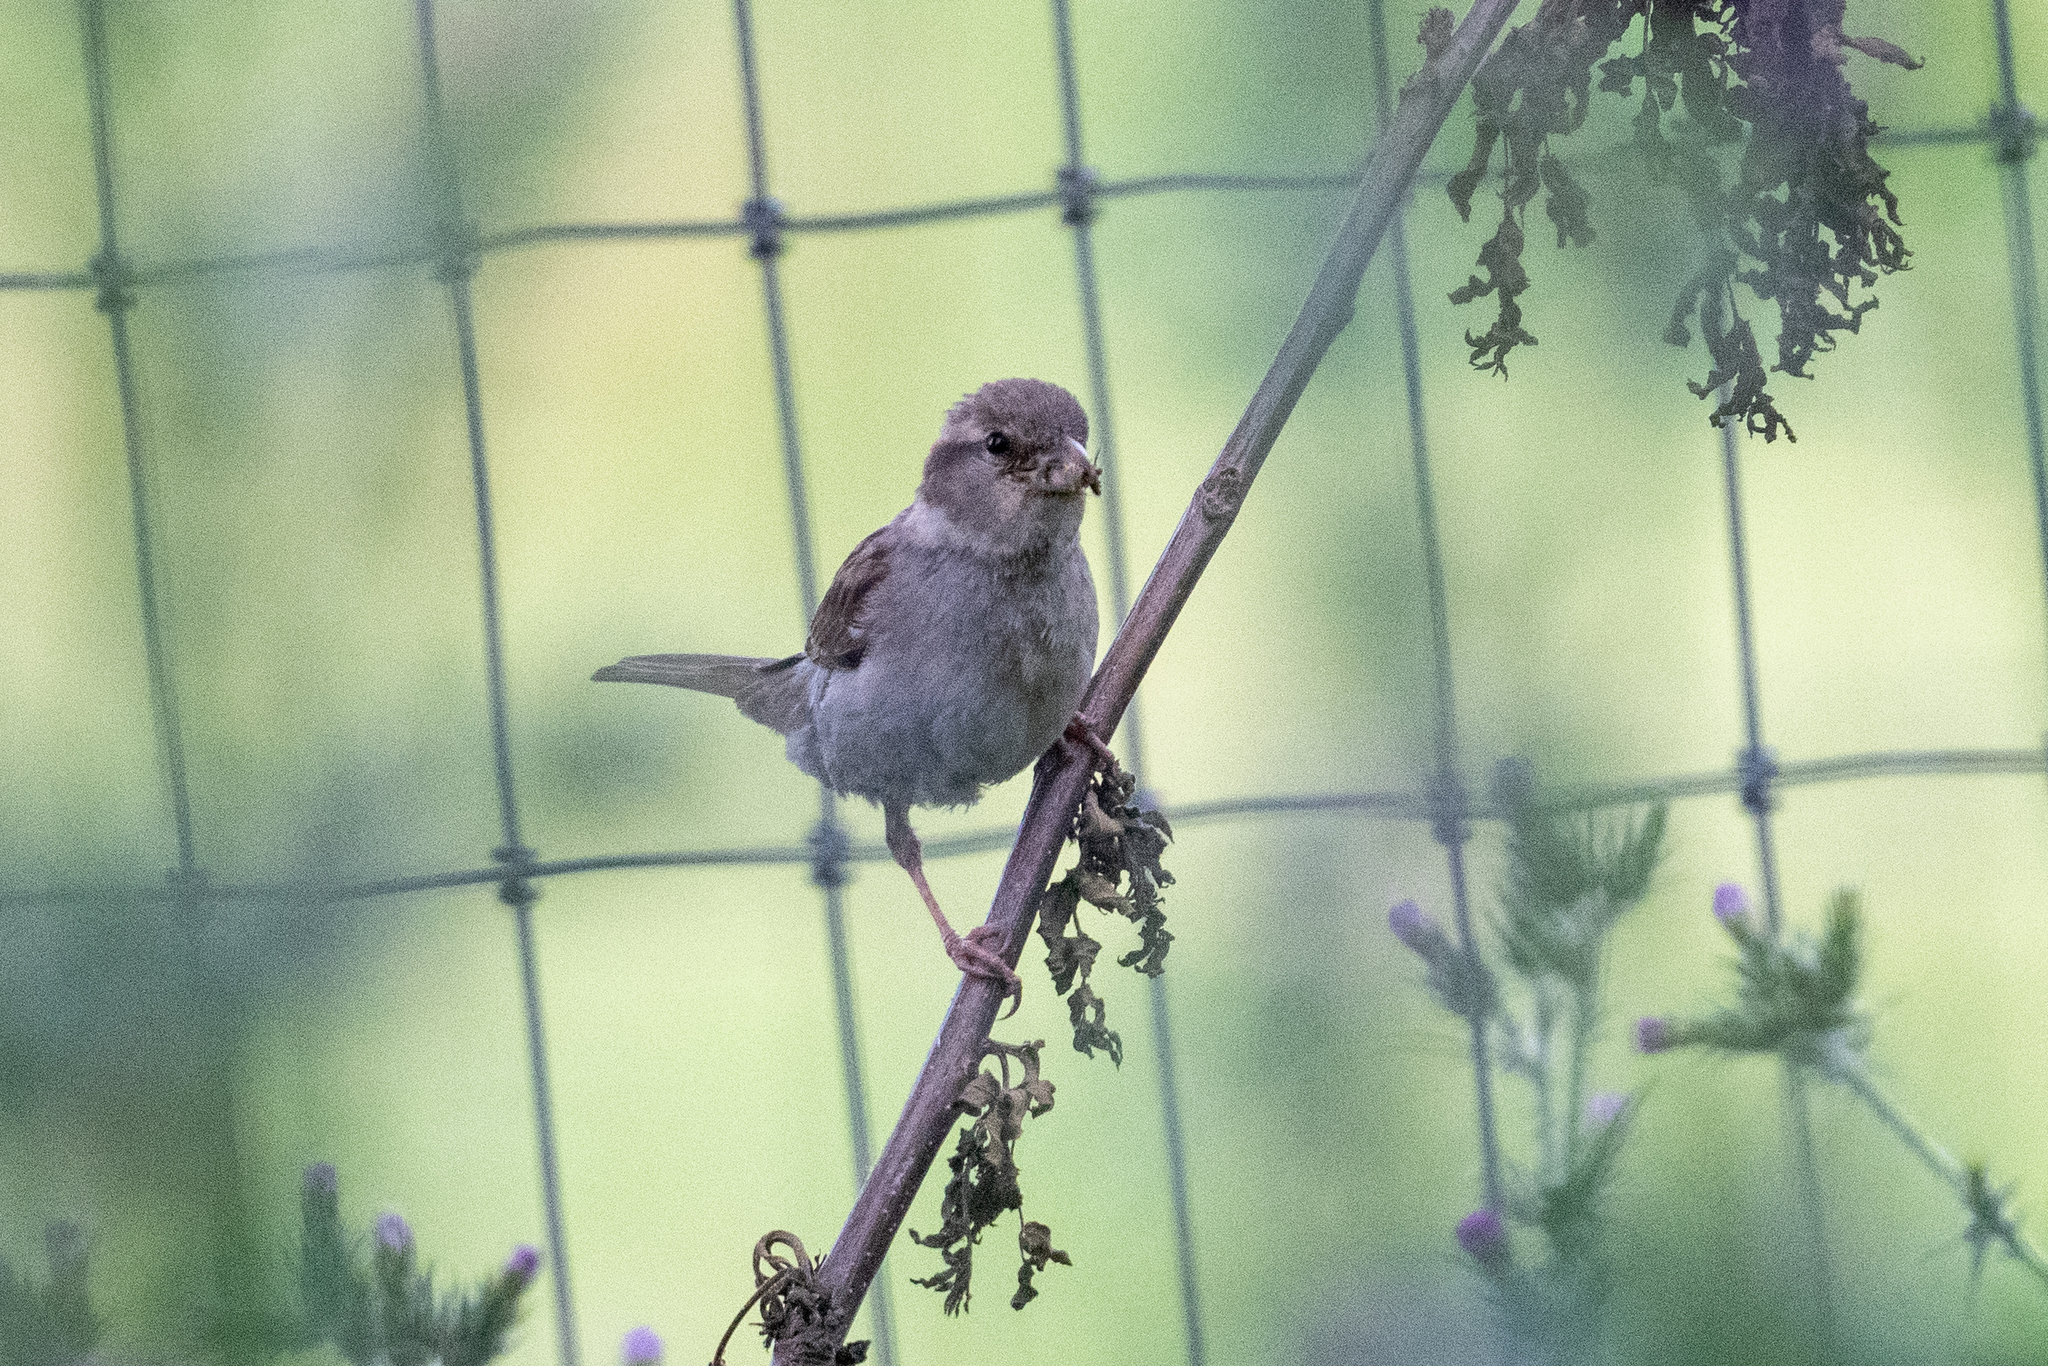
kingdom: Animalia
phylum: Chordata
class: Aves
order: Passeriformes
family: Passeridae
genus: Passer
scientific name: Passer domesticus
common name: House sparrow
